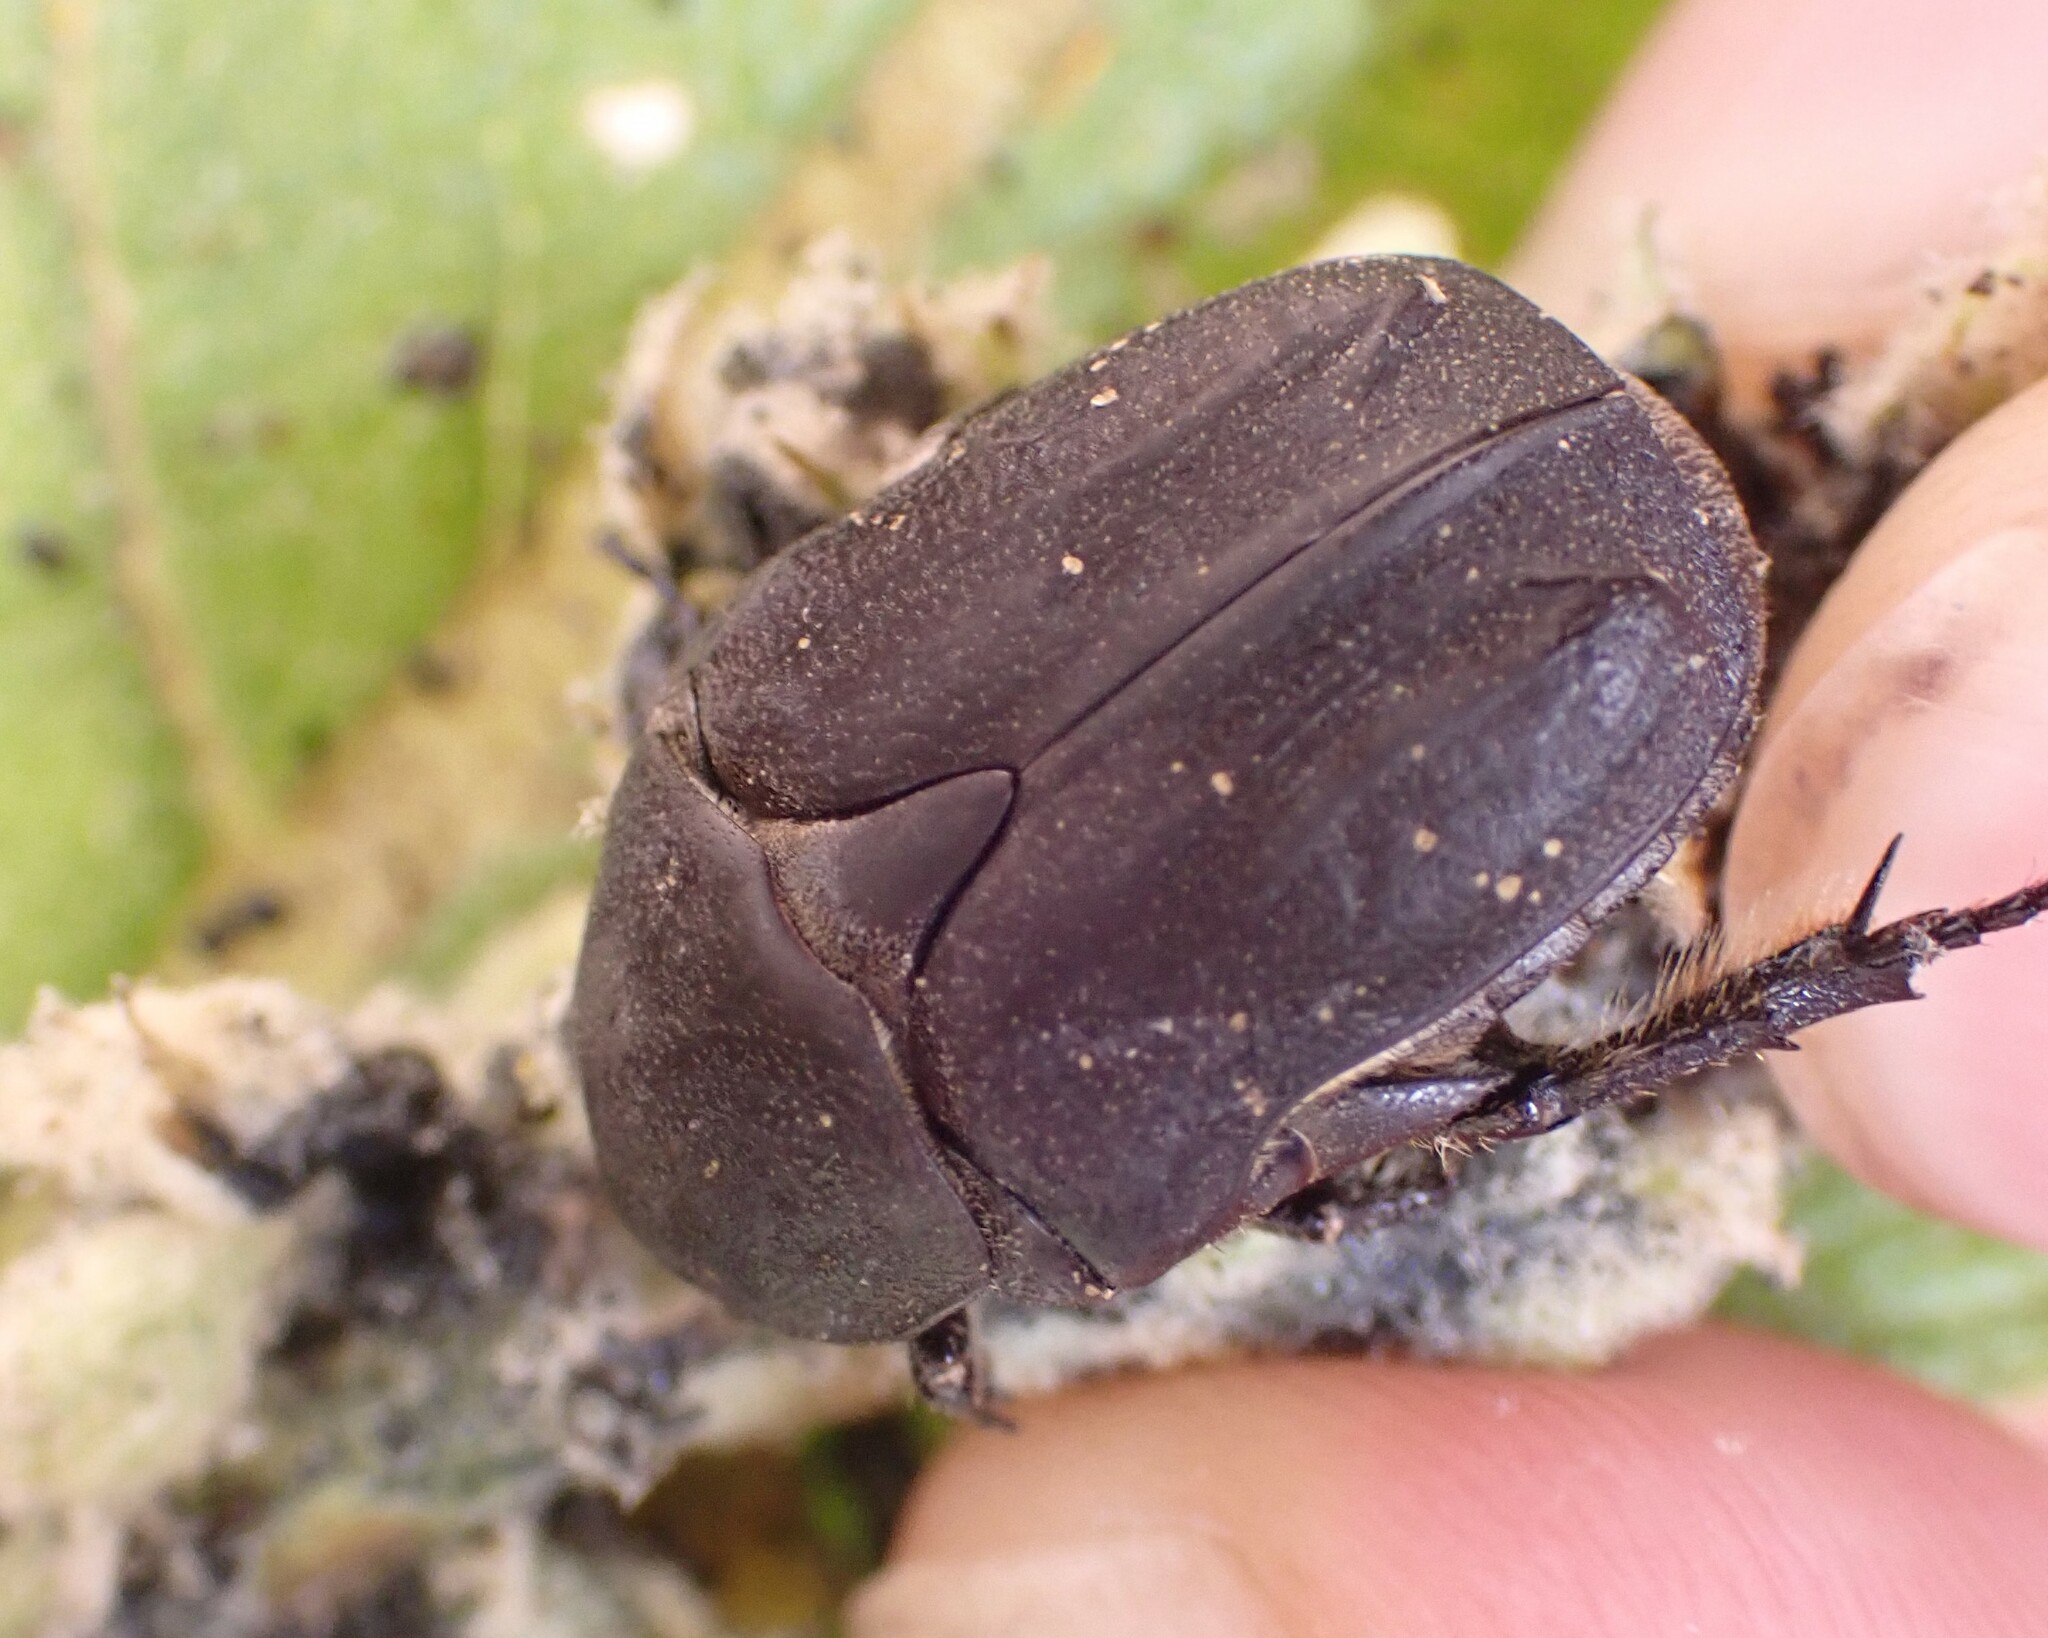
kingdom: Animalia
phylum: Arthropoda
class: Insecta
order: Coleoptera
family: Scarabaeidae
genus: Protaetia
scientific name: Protaetia morio
